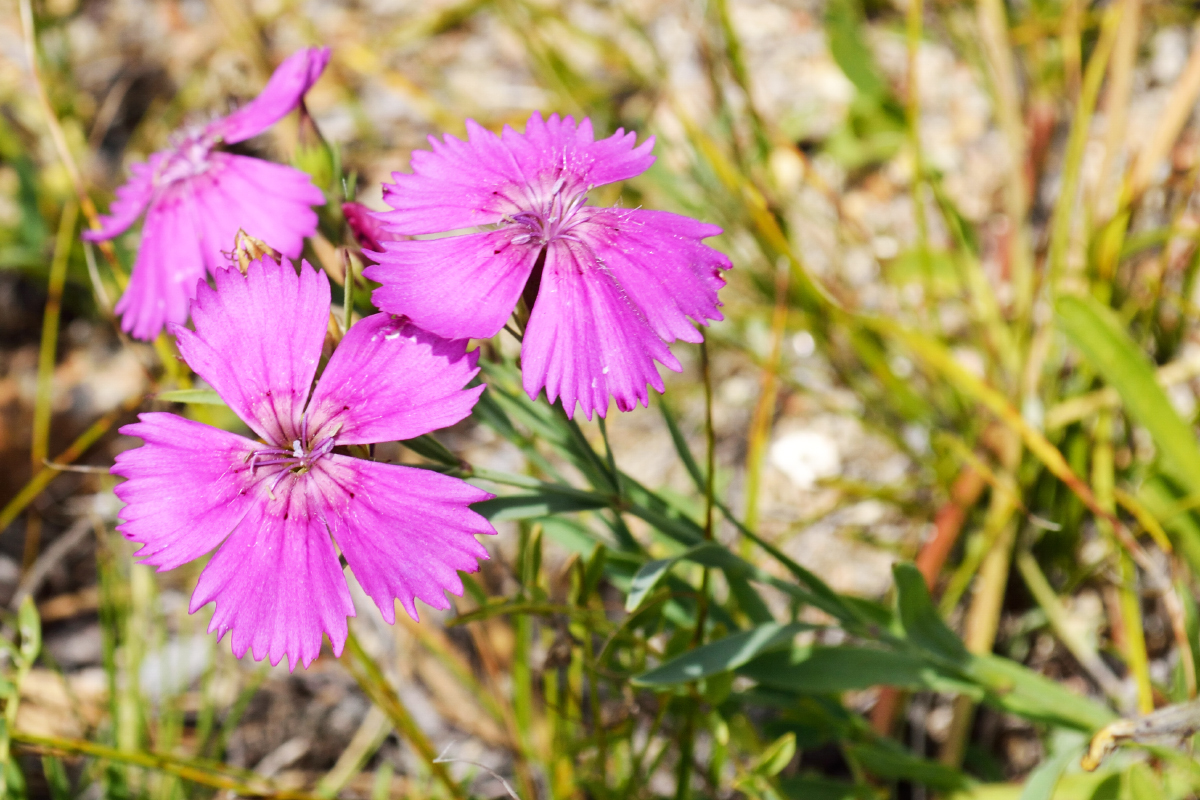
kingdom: Plantae
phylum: Tracheophyta
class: Magnoliopsida
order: Caryophyllales
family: Caryophyllaceae
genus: Dianthus
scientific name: Dianthus chinensis
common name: Rainbow pink
